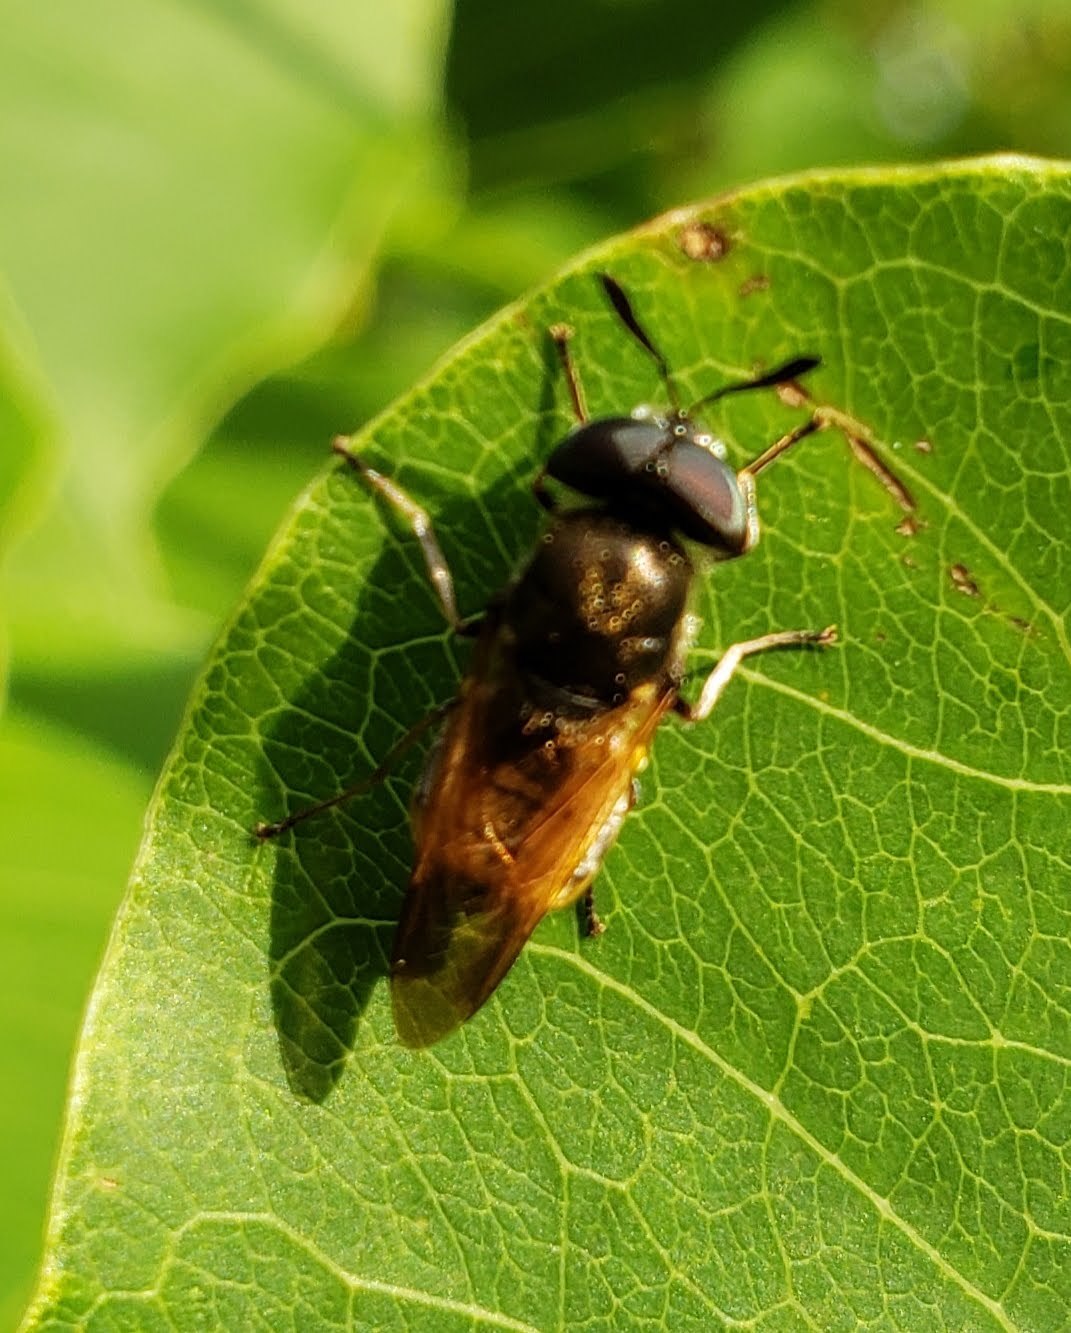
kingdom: Animalia
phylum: Arthropoda
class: Insecta
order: Diptera
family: Stratiomyidae
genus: Hoplitimyia
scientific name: Hoplitimyia mutabilis
